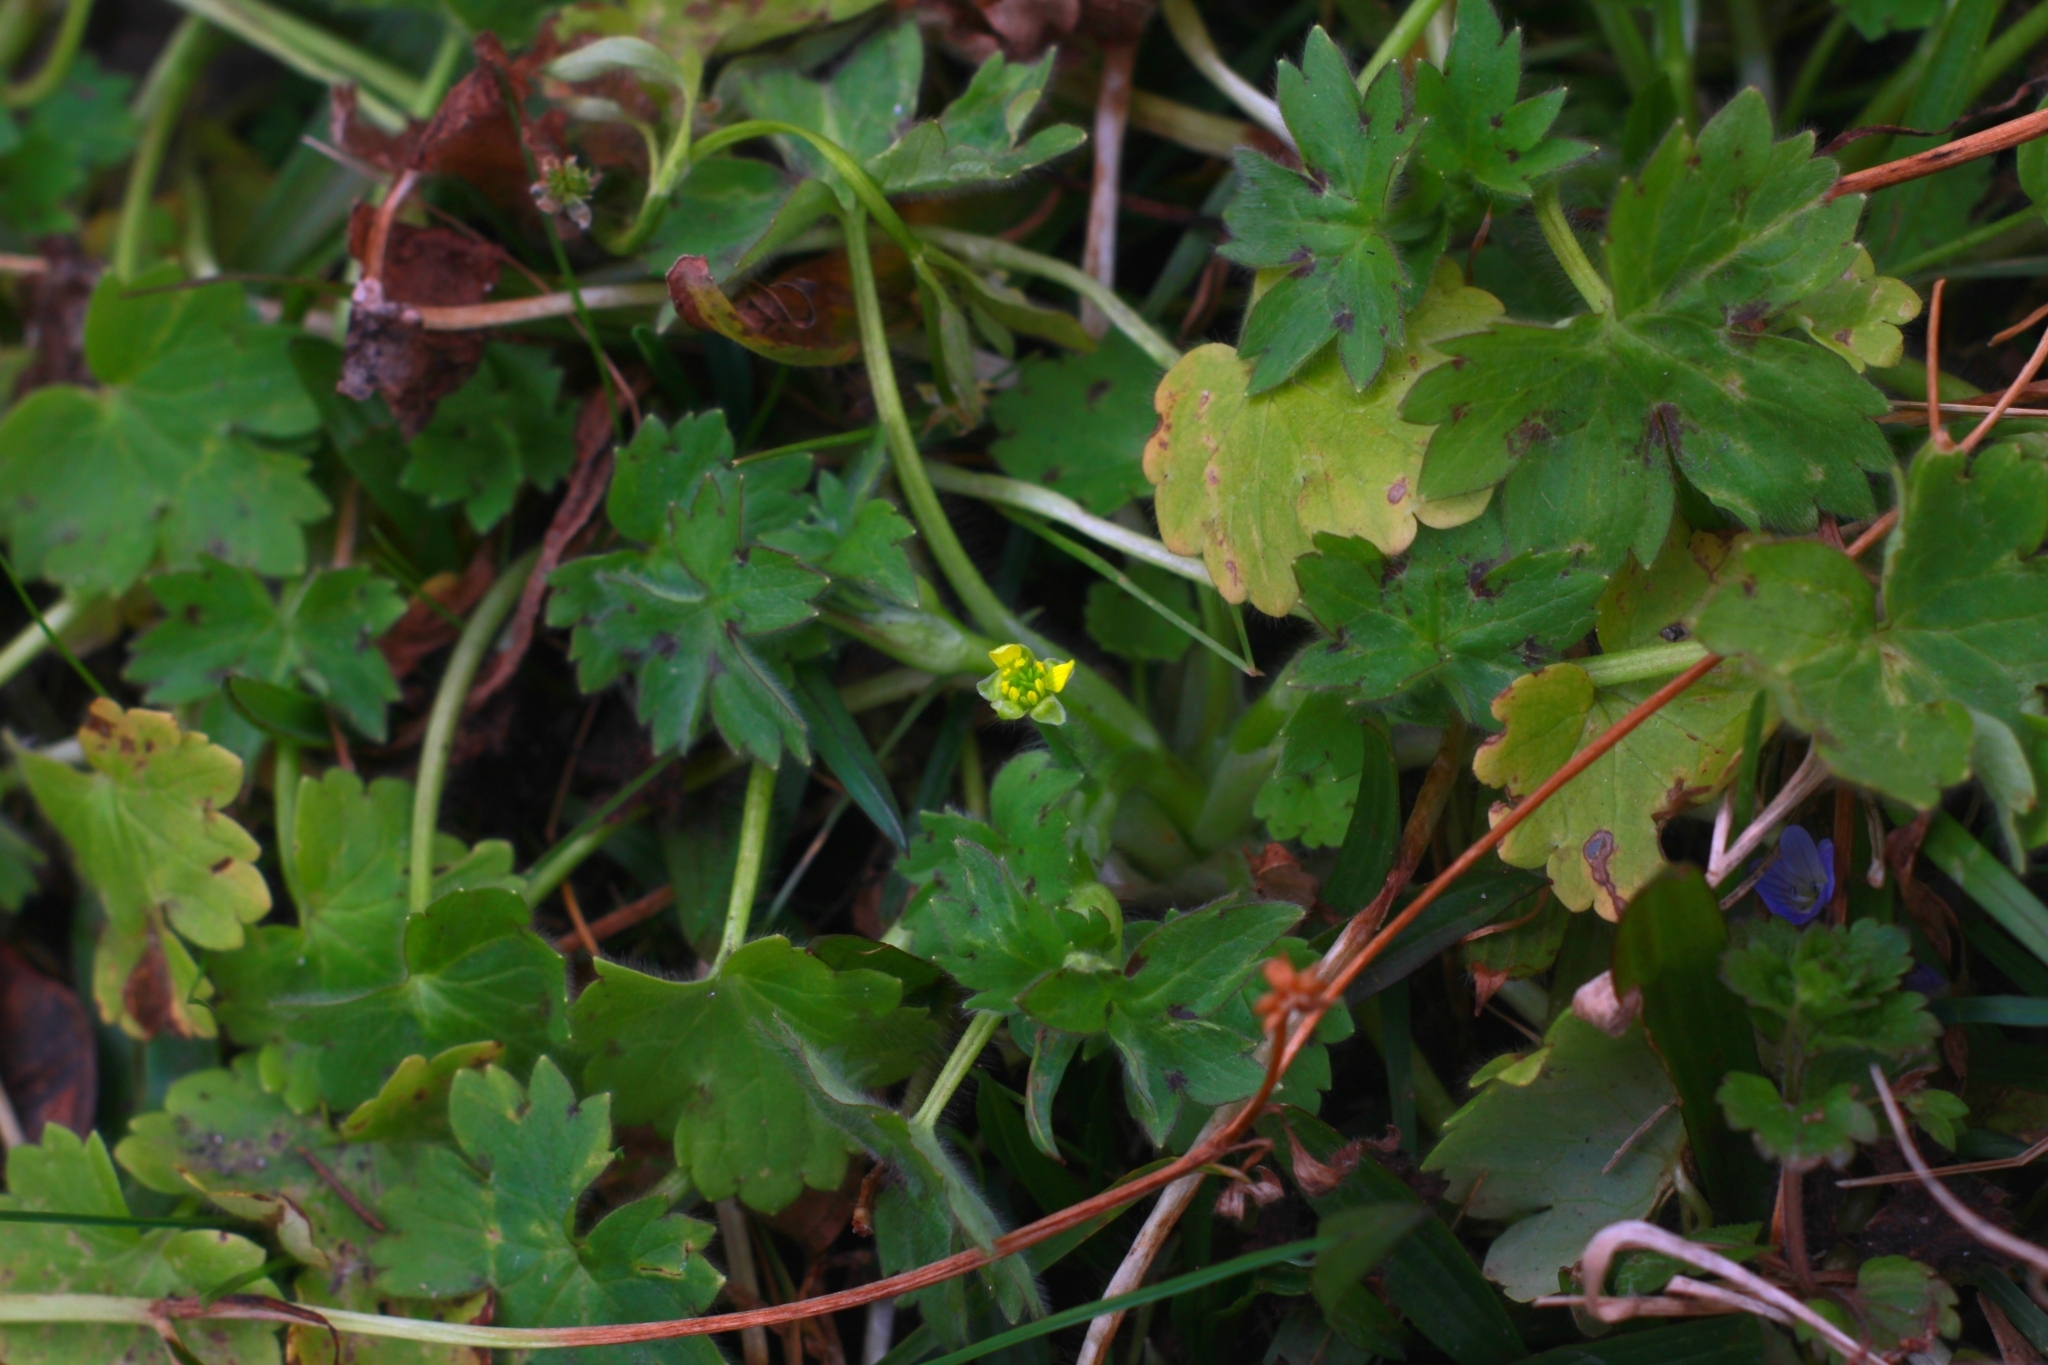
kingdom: Plantae
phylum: Tracheophyta
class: Magnoliopsida
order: Ranunculales
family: Ranunculaceae
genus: Ranunculus
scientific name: Ranunculus parviflorus
